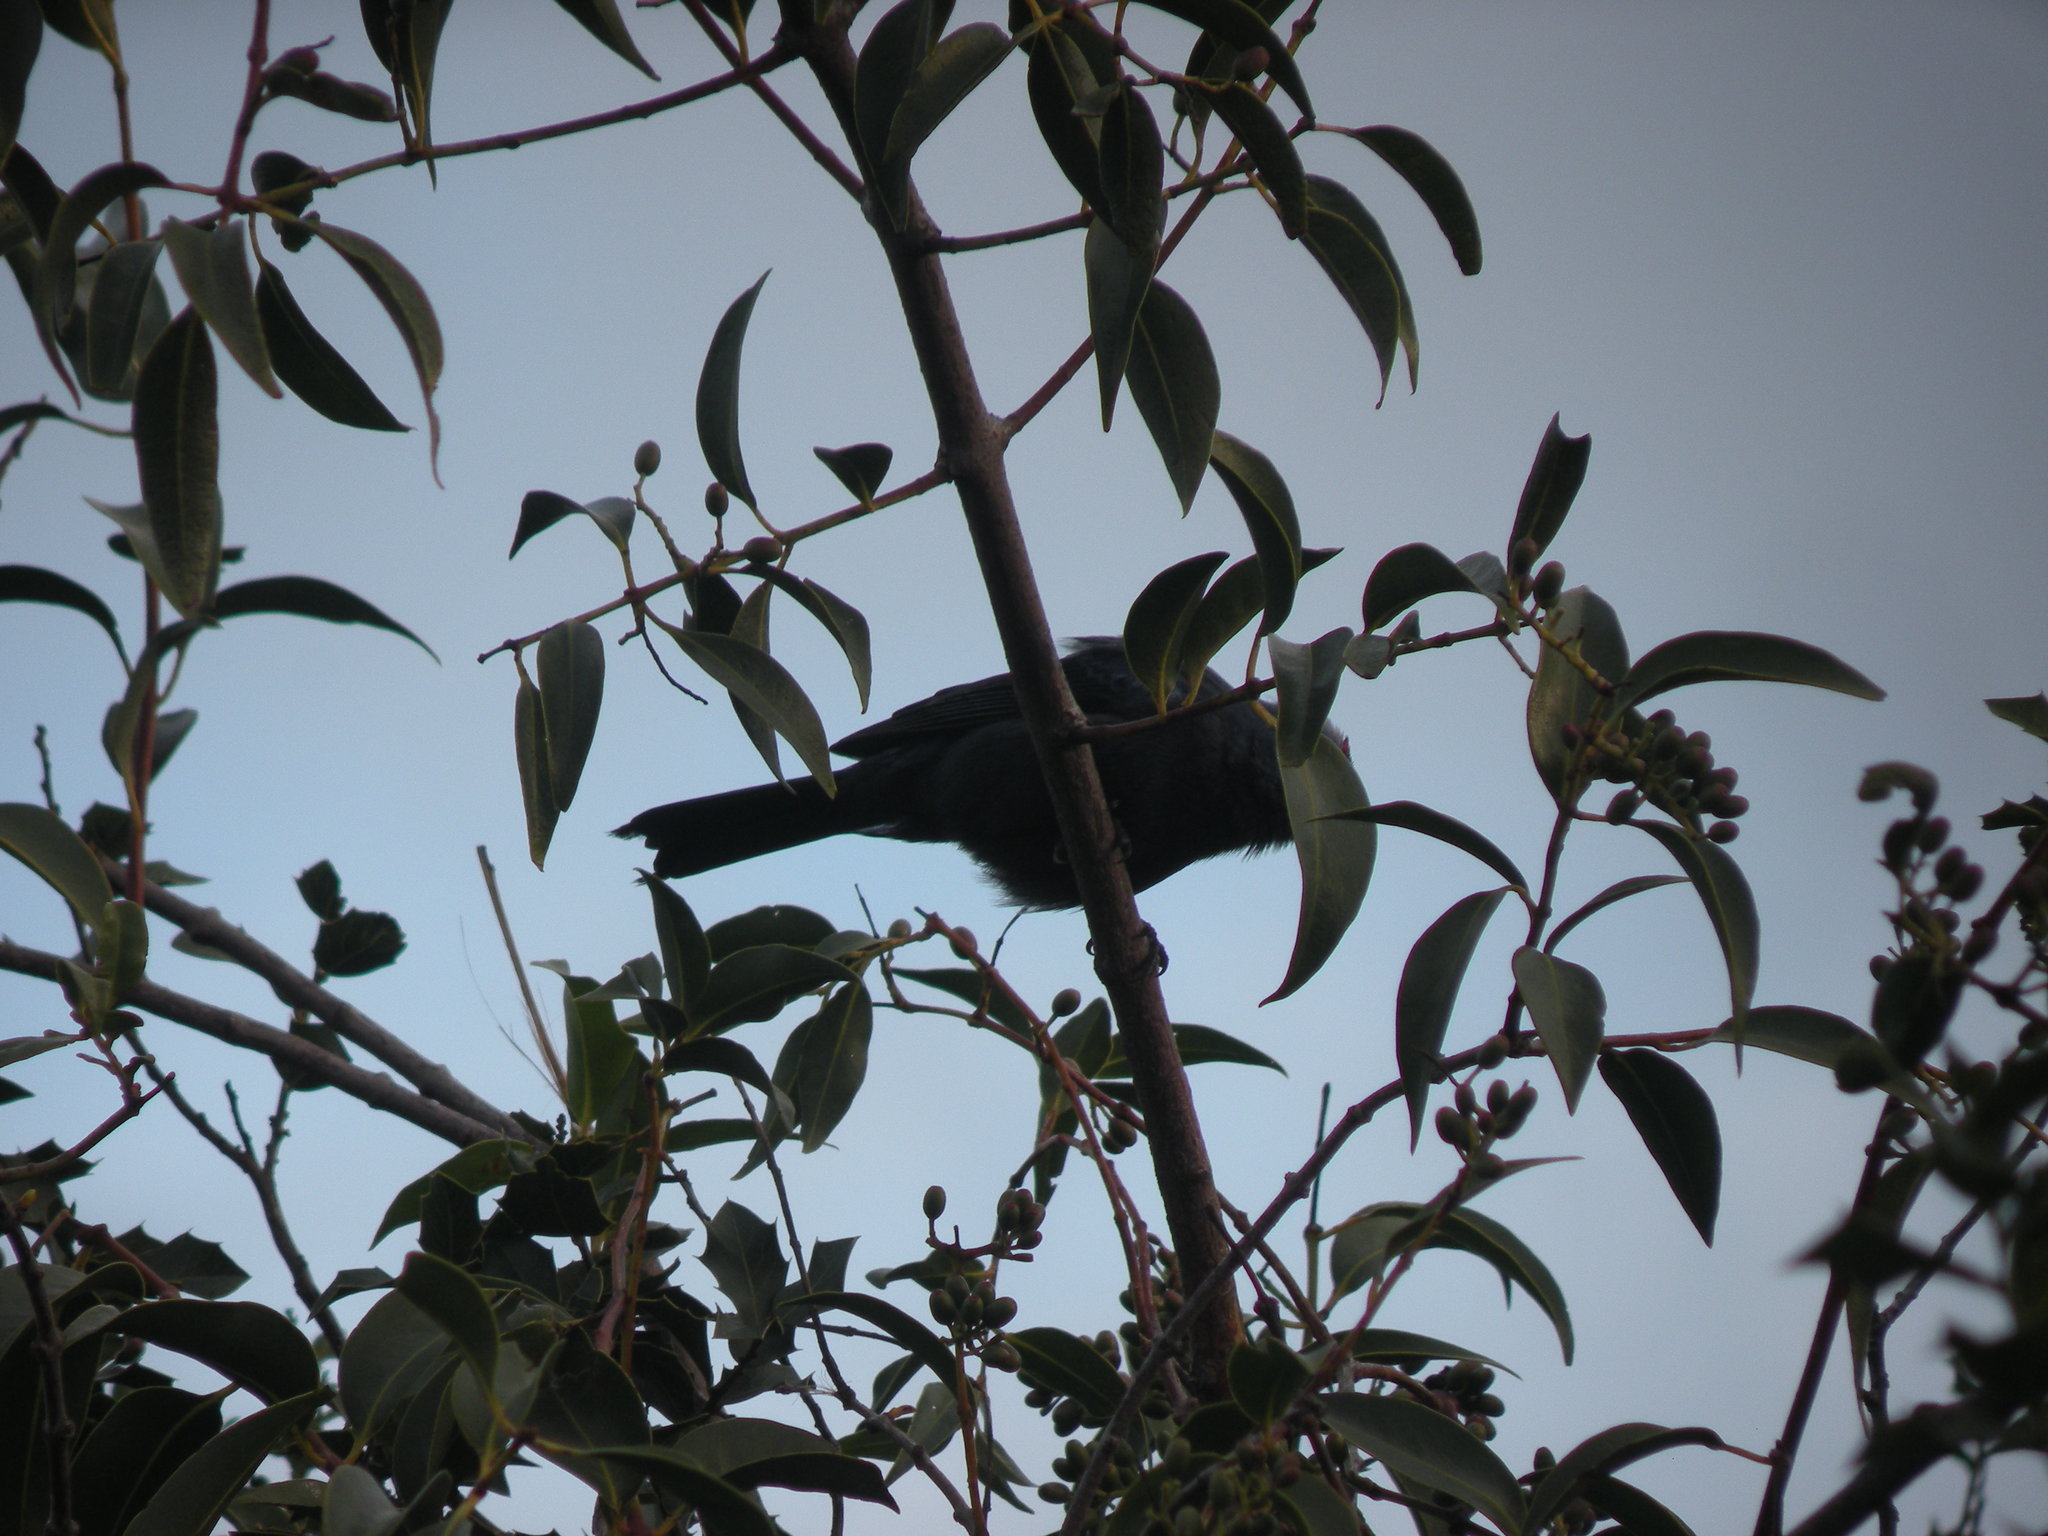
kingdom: Animalia
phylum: Chordata
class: Aves
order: Passeriformes
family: Thraupidae
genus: Stephanophorus
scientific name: Stephanophorus diadematus
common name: Diademed tanager
